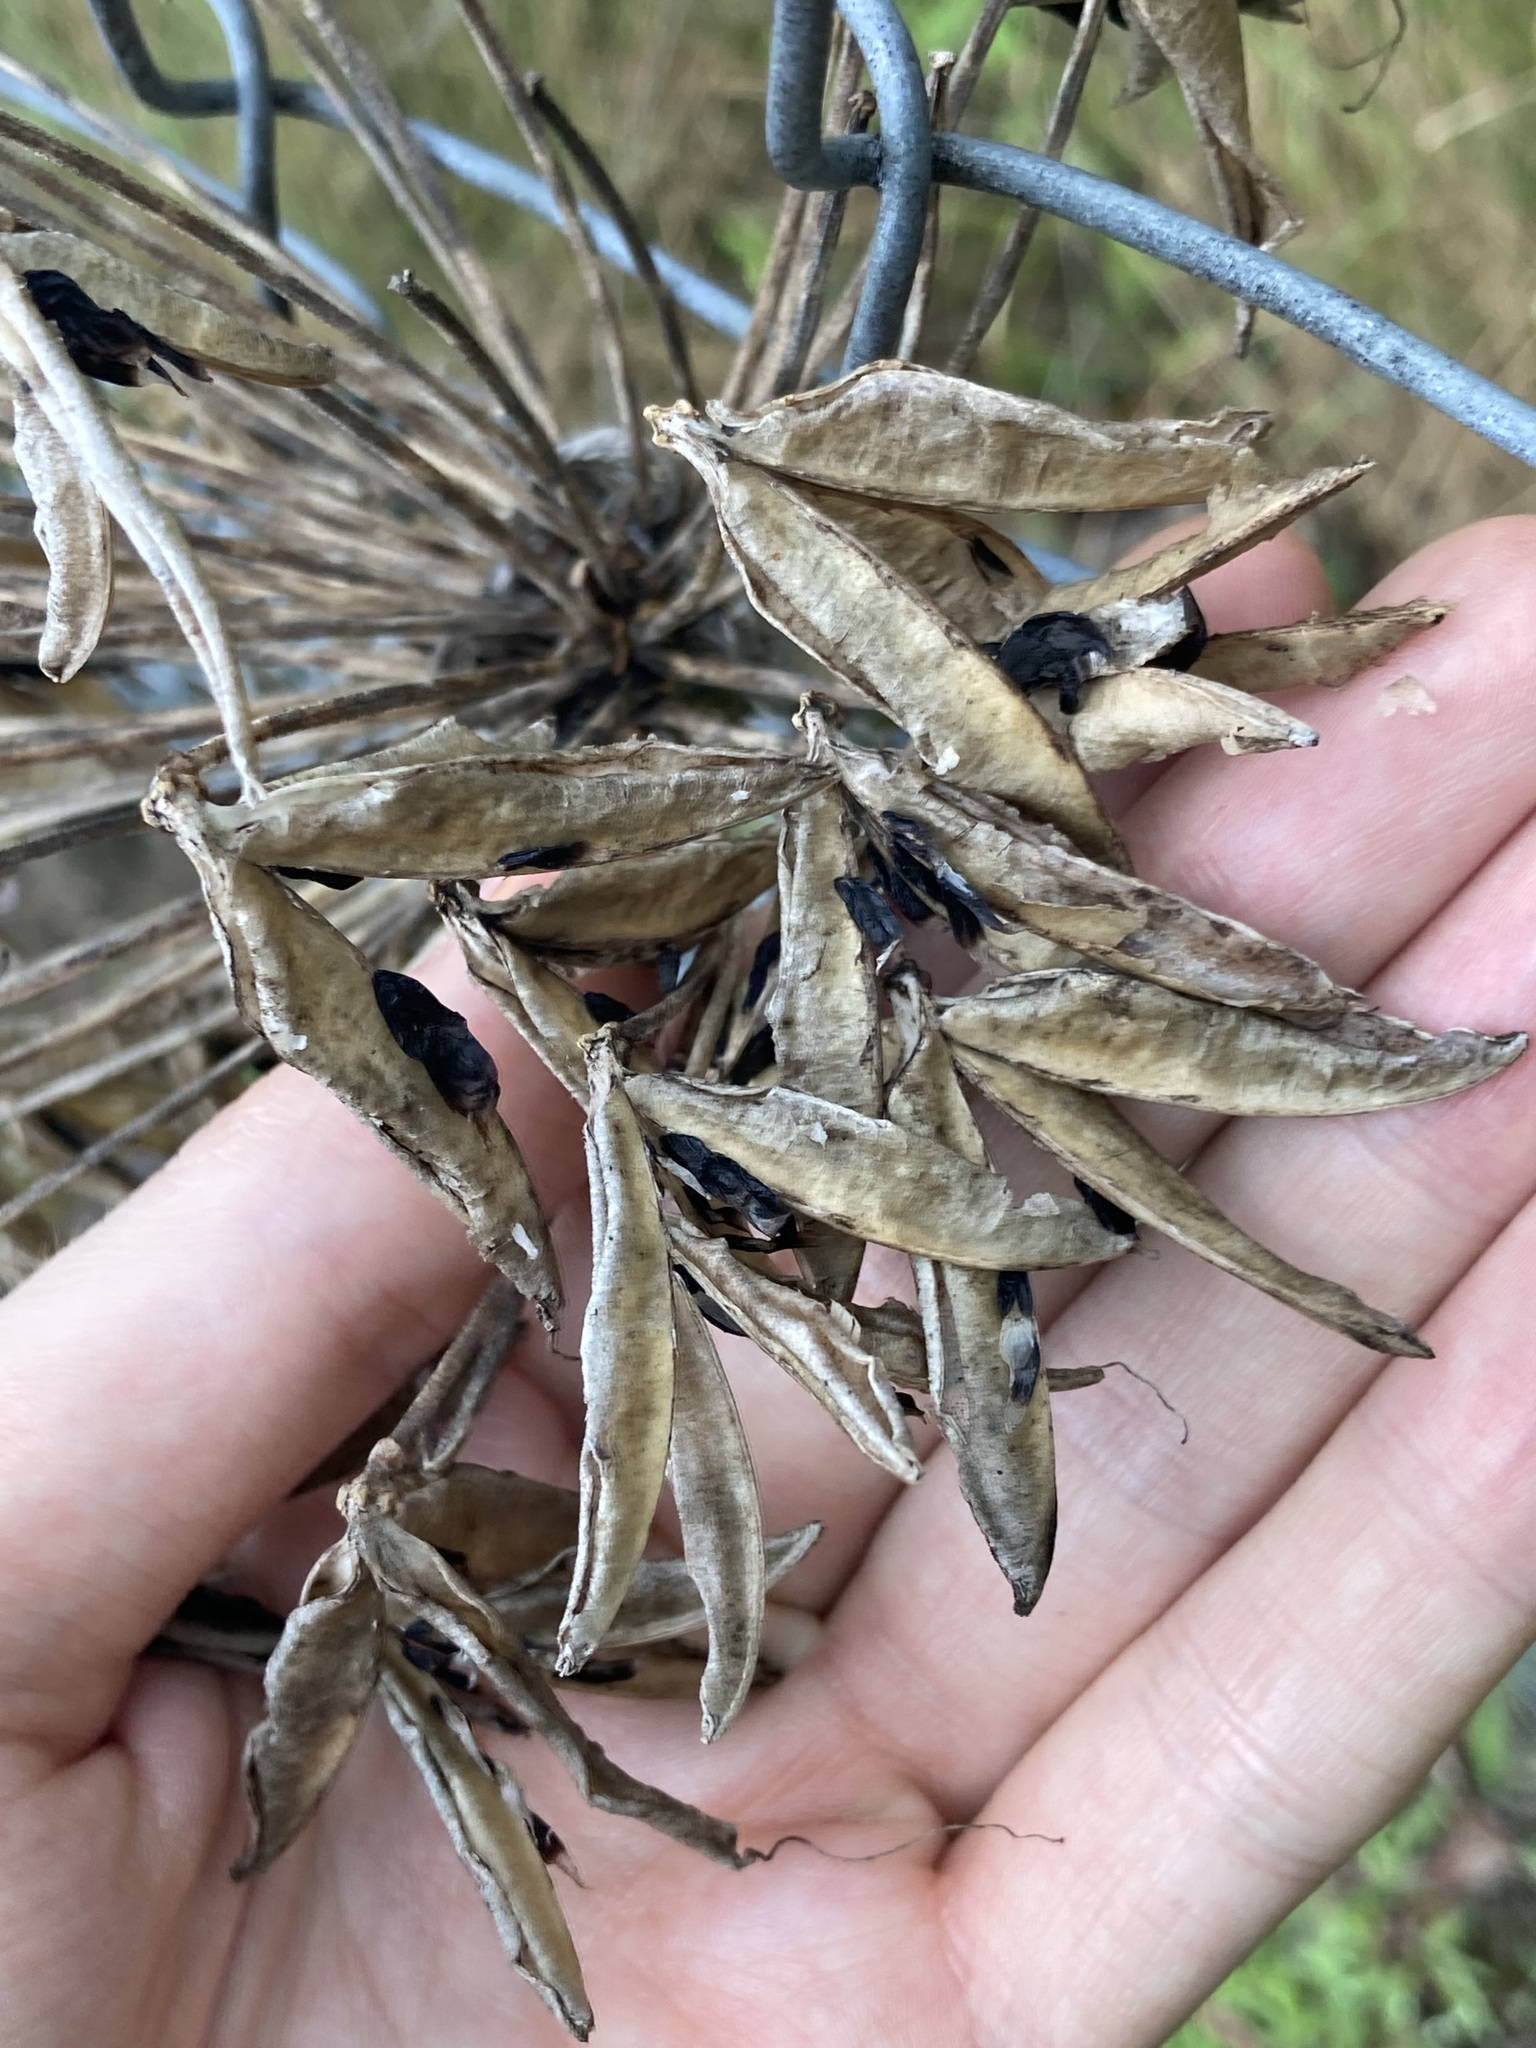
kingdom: Plantae
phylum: Tracheophyta
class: Liliopsida
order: Asparagales
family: Amaryllidaceae
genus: Agapanthus
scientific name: Agapanthus praecox
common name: African-lily
